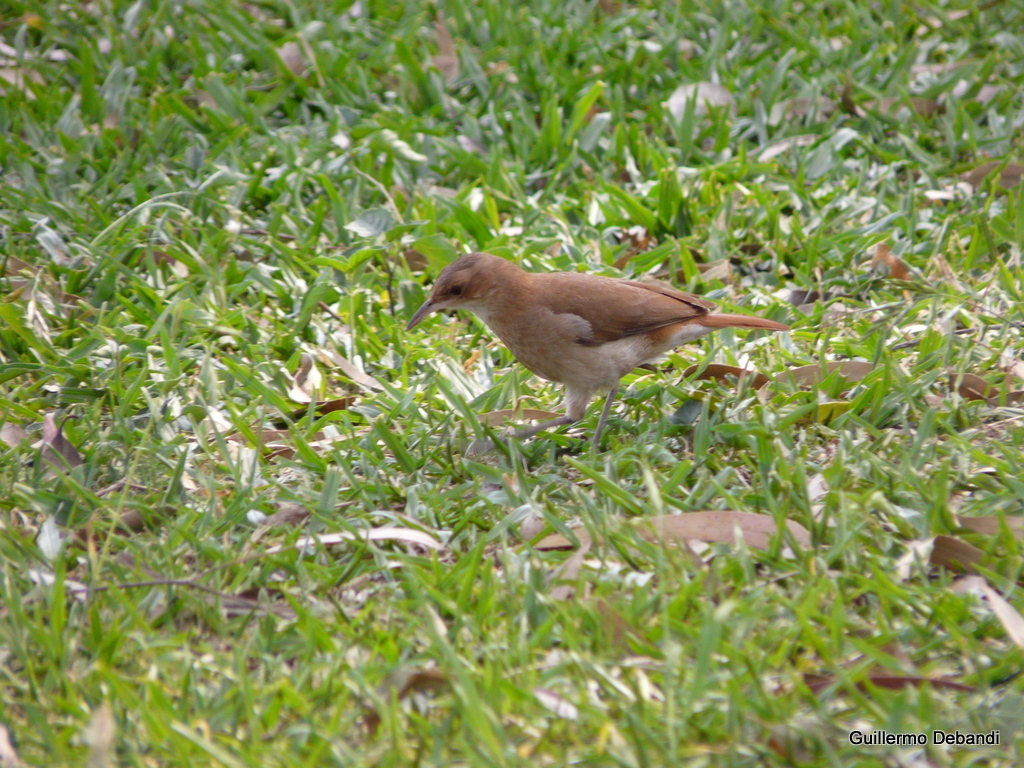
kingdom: Animalia
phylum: Chordata
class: Aves
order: Passeriformes
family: Furnariidae
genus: Furnarius
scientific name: Furnarius rufus
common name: Rufous hornero
